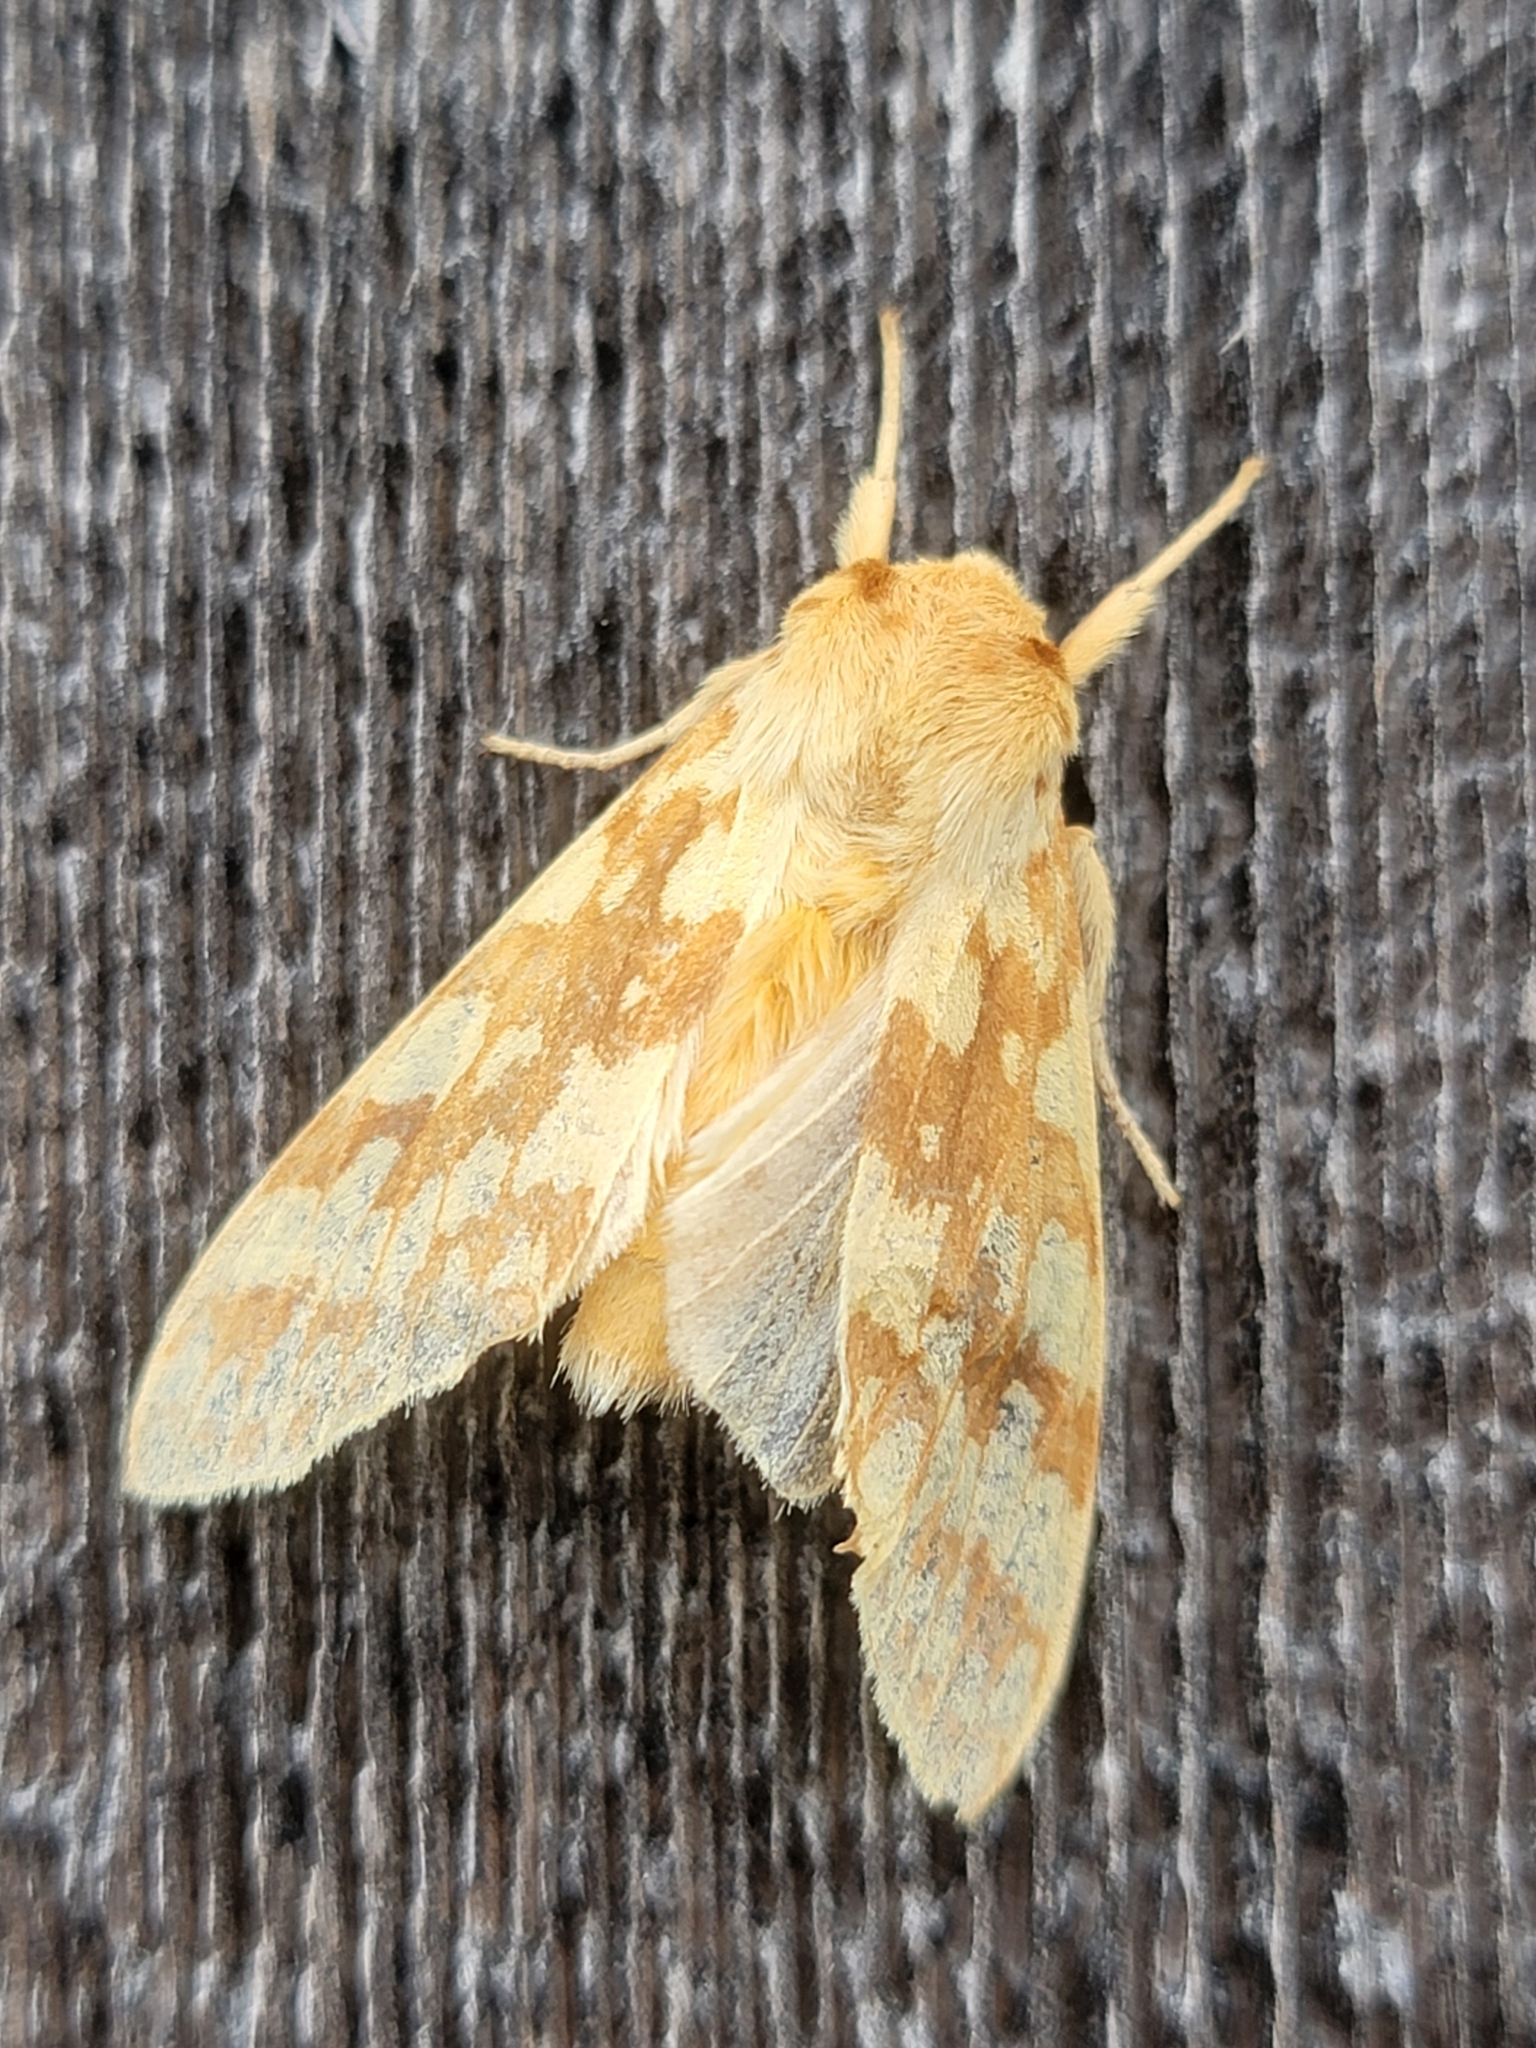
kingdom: Animalia
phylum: Arthropoda
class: Insecta
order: Lepidoptera
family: Erebidae
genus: Lophocampa
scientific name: Lophocampa maculata
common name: Spotted tussock moth
